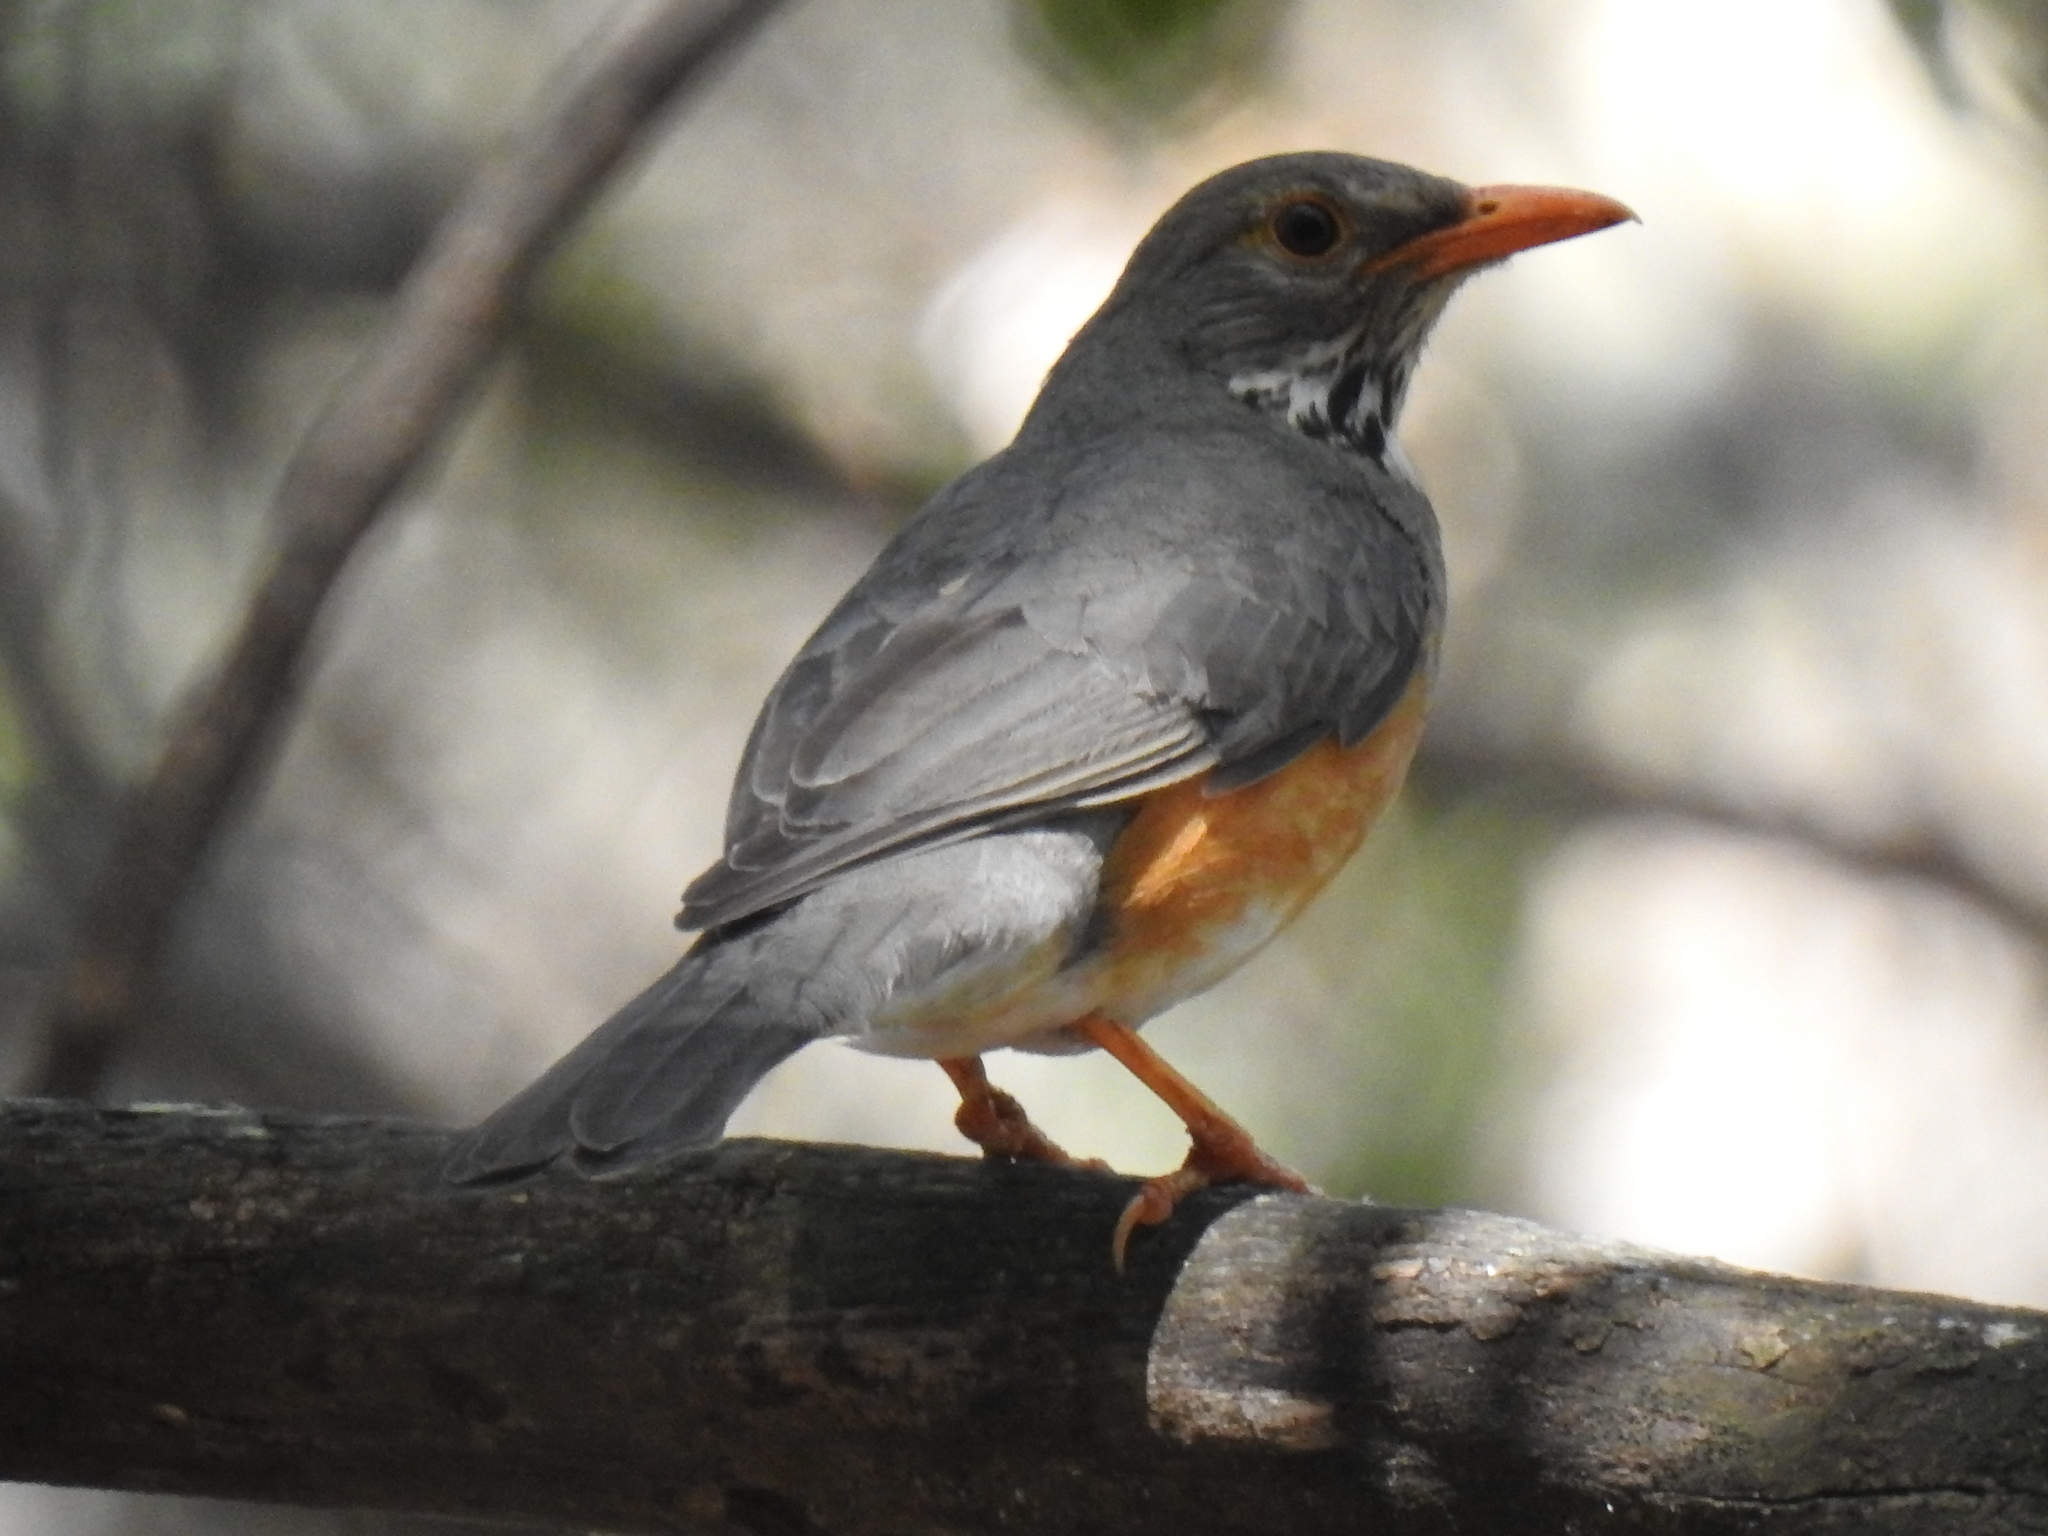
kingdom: Animalia
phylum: Chordata
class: Aves
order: Passeriformes
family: Turdidae
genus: Turdus
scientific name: Turdus libonyana
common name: Kurrichane thrush
